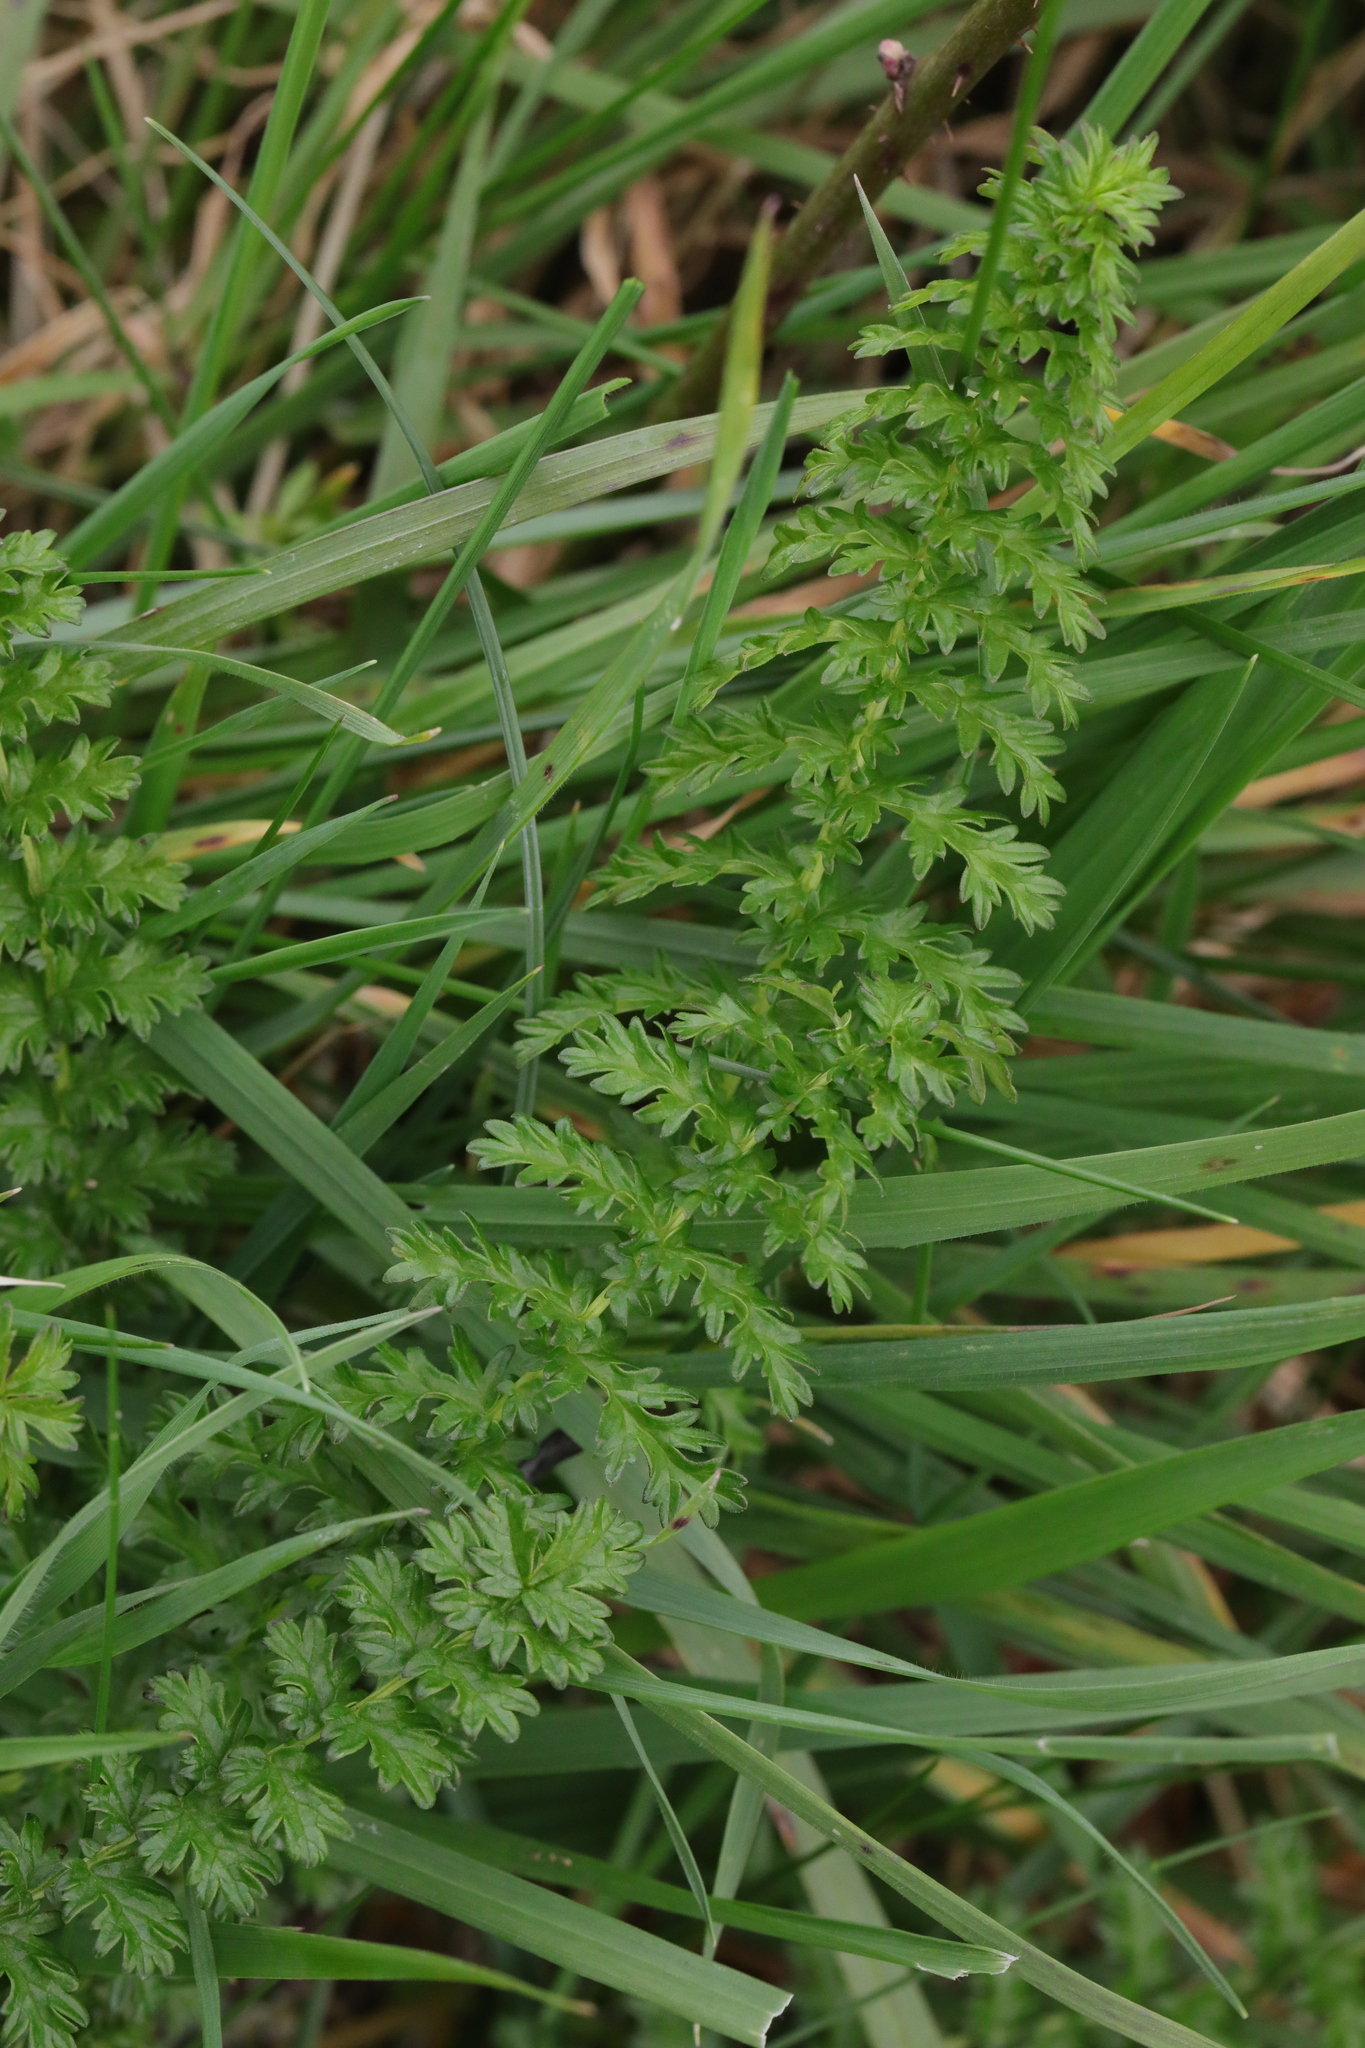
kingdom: Plantae
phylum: Tracheophyta
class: Magnoliopsida
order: Rosales
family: Rosaceae
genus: Filipendula
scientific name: Filipendula vulgaris
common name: Dropwort
